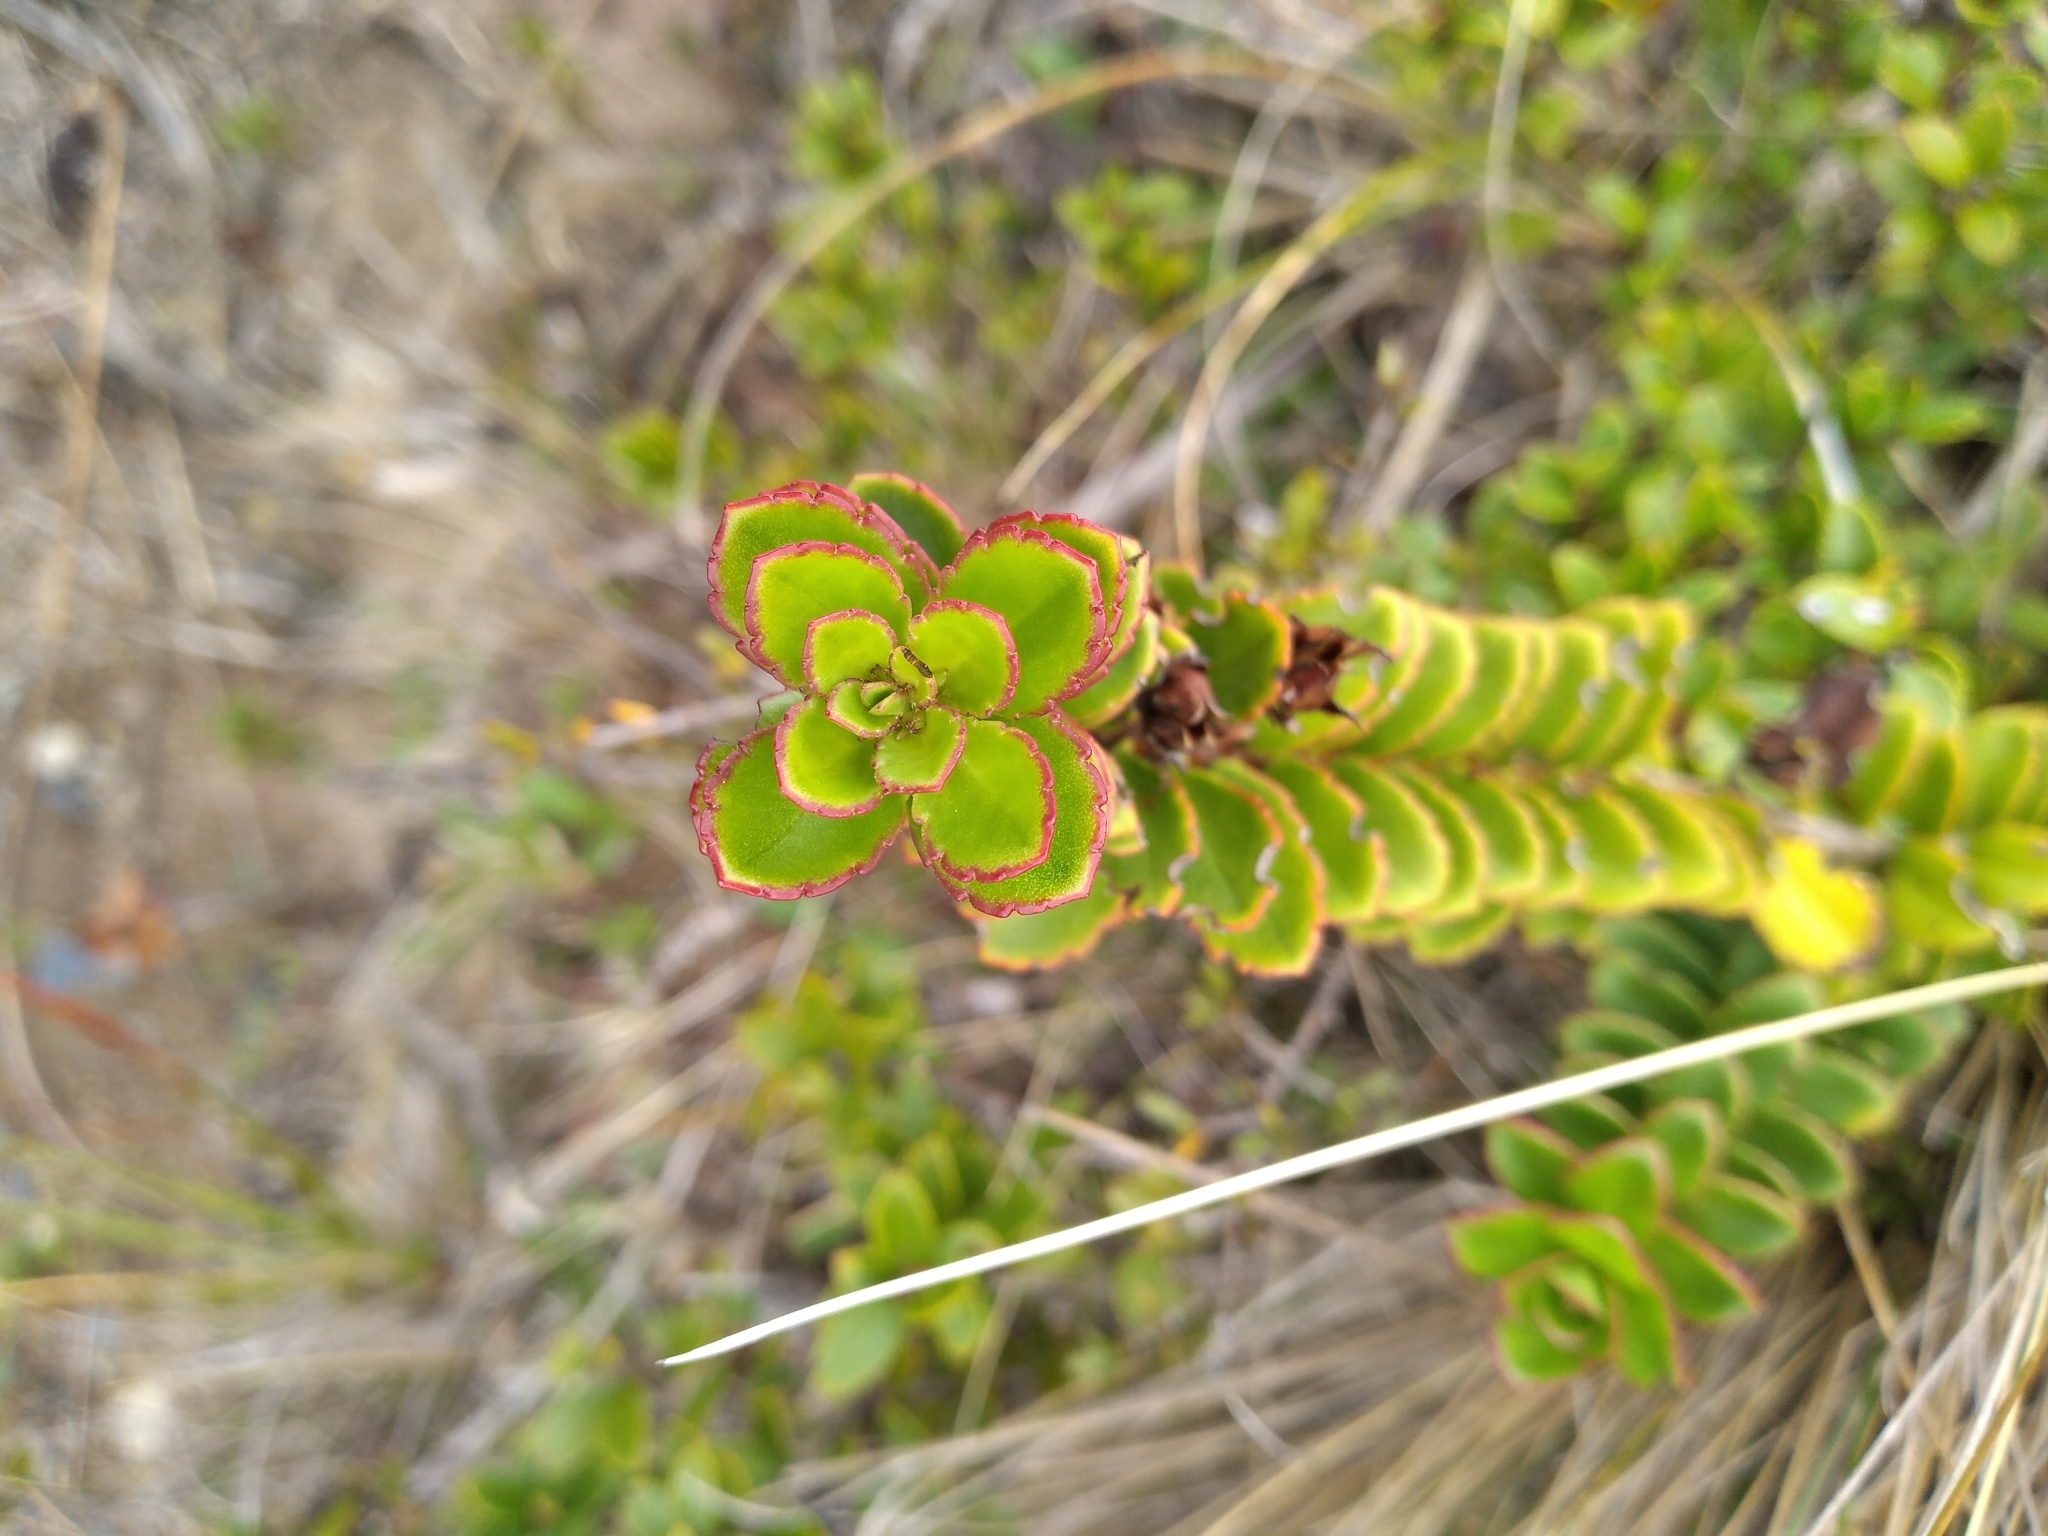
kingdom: Plantae
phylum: Tracheophyta
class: Magnoliopsida
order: Lamiales
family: Plantaginaceae
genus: Veronica
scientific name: Veronica macrantha
